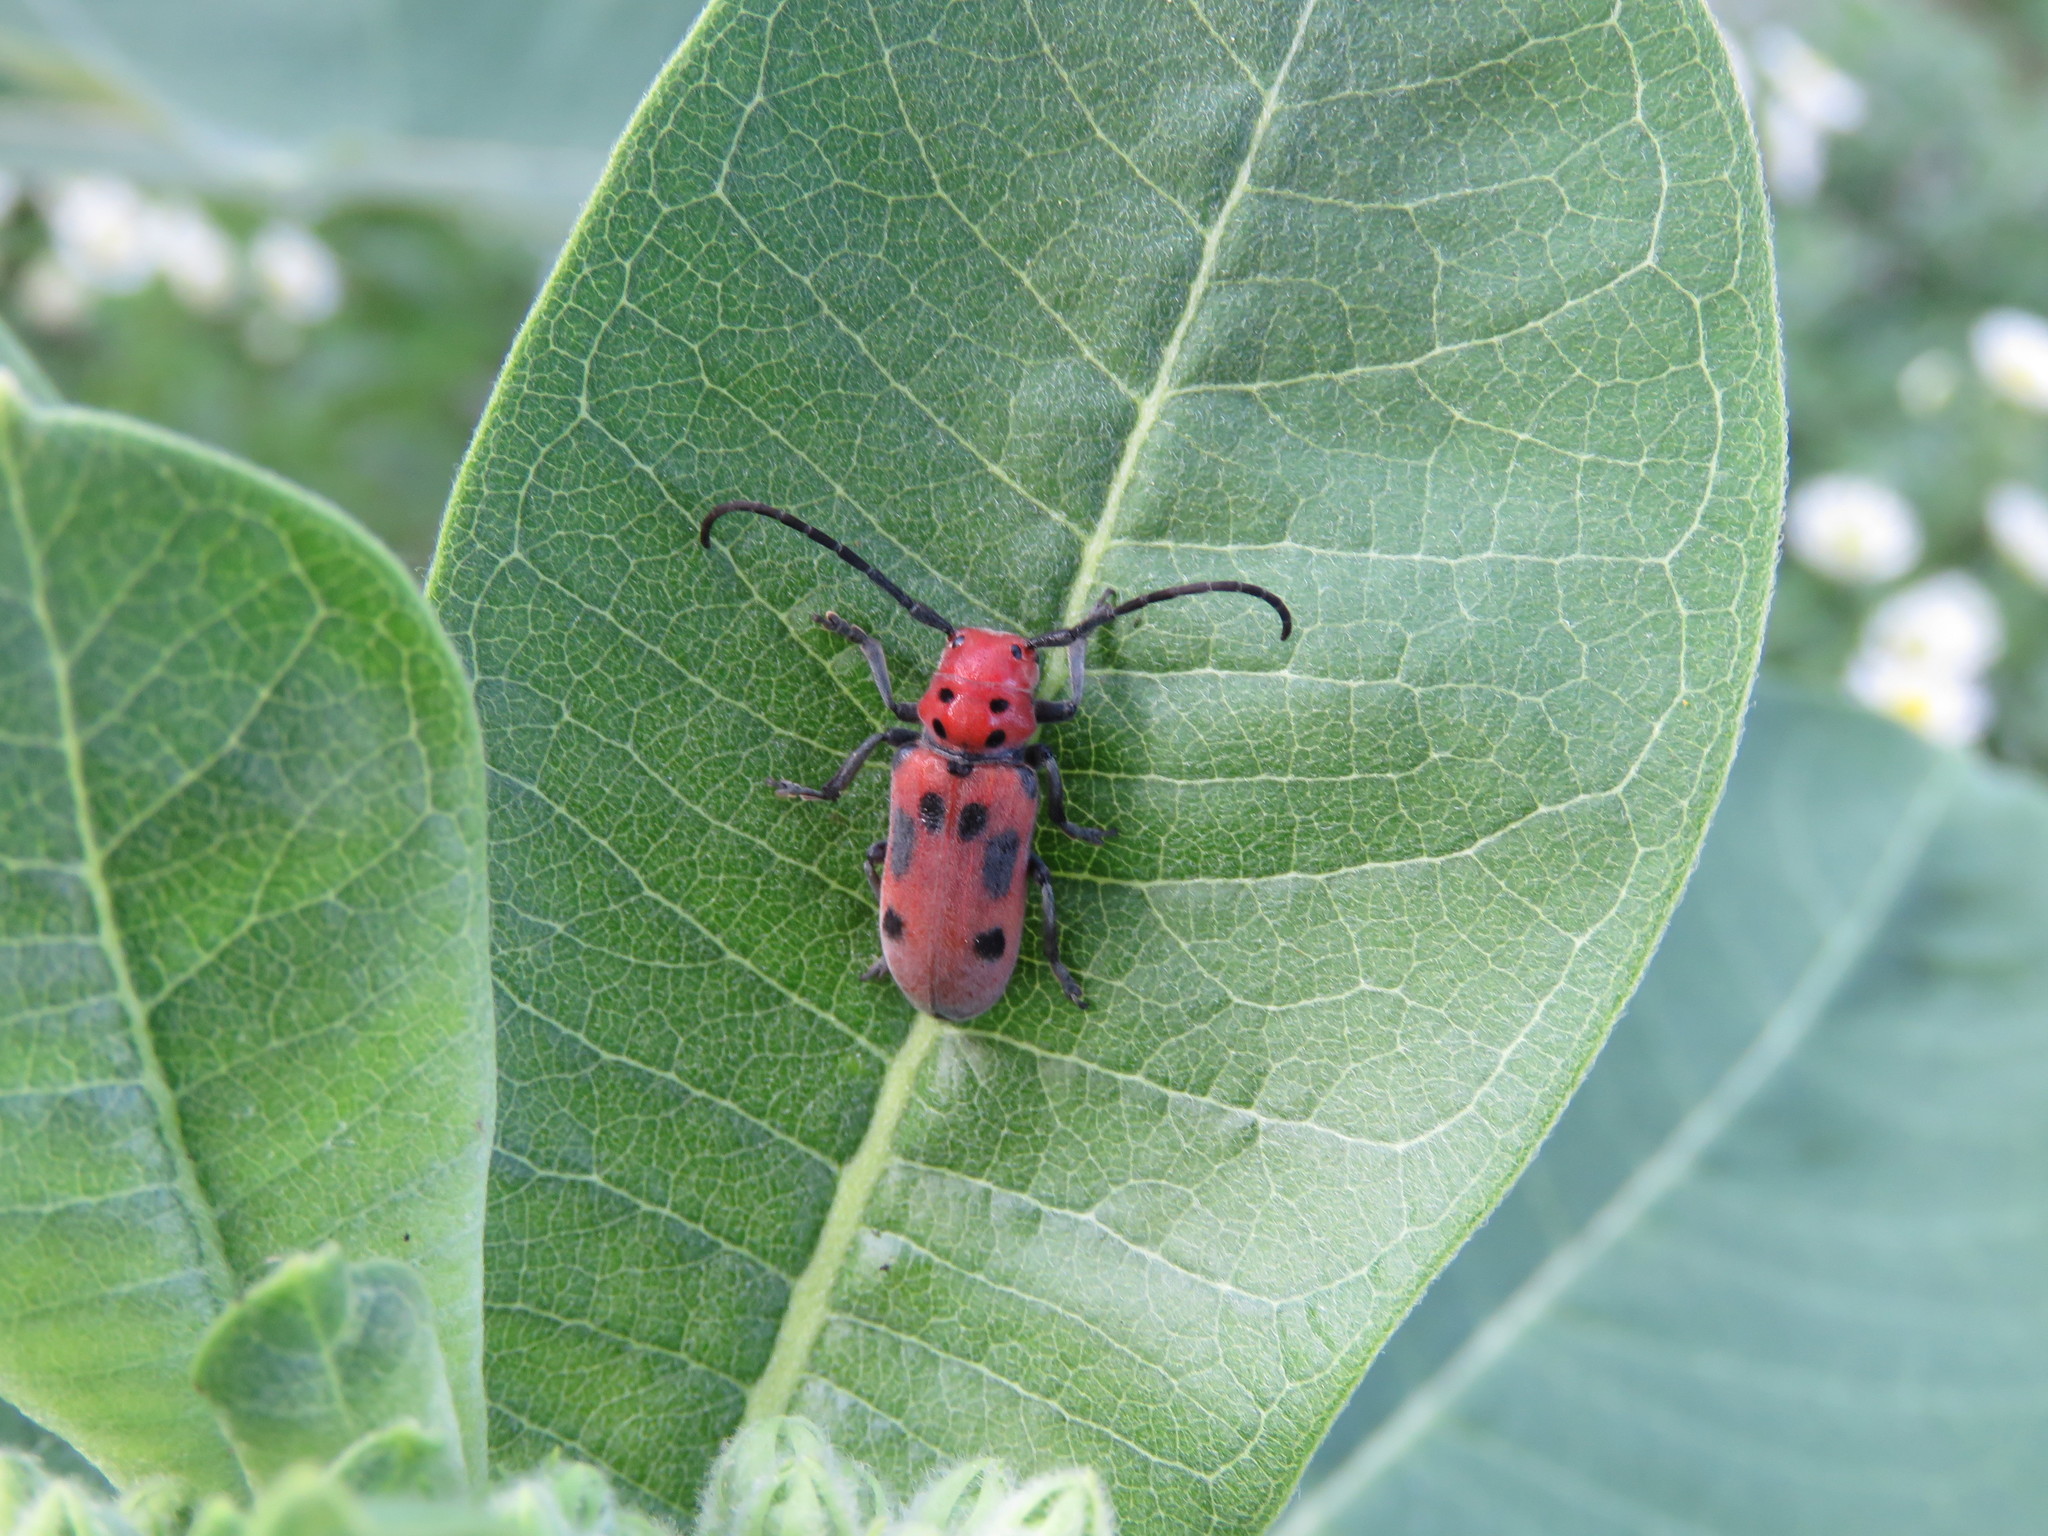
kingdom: Animalia
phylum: Arthropoda
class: Insecta
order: Coleoptera
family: Cerambycidae
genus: Tetraopes
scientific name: Tetraopes tetrophthalmus
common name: Red milkweed beetle
